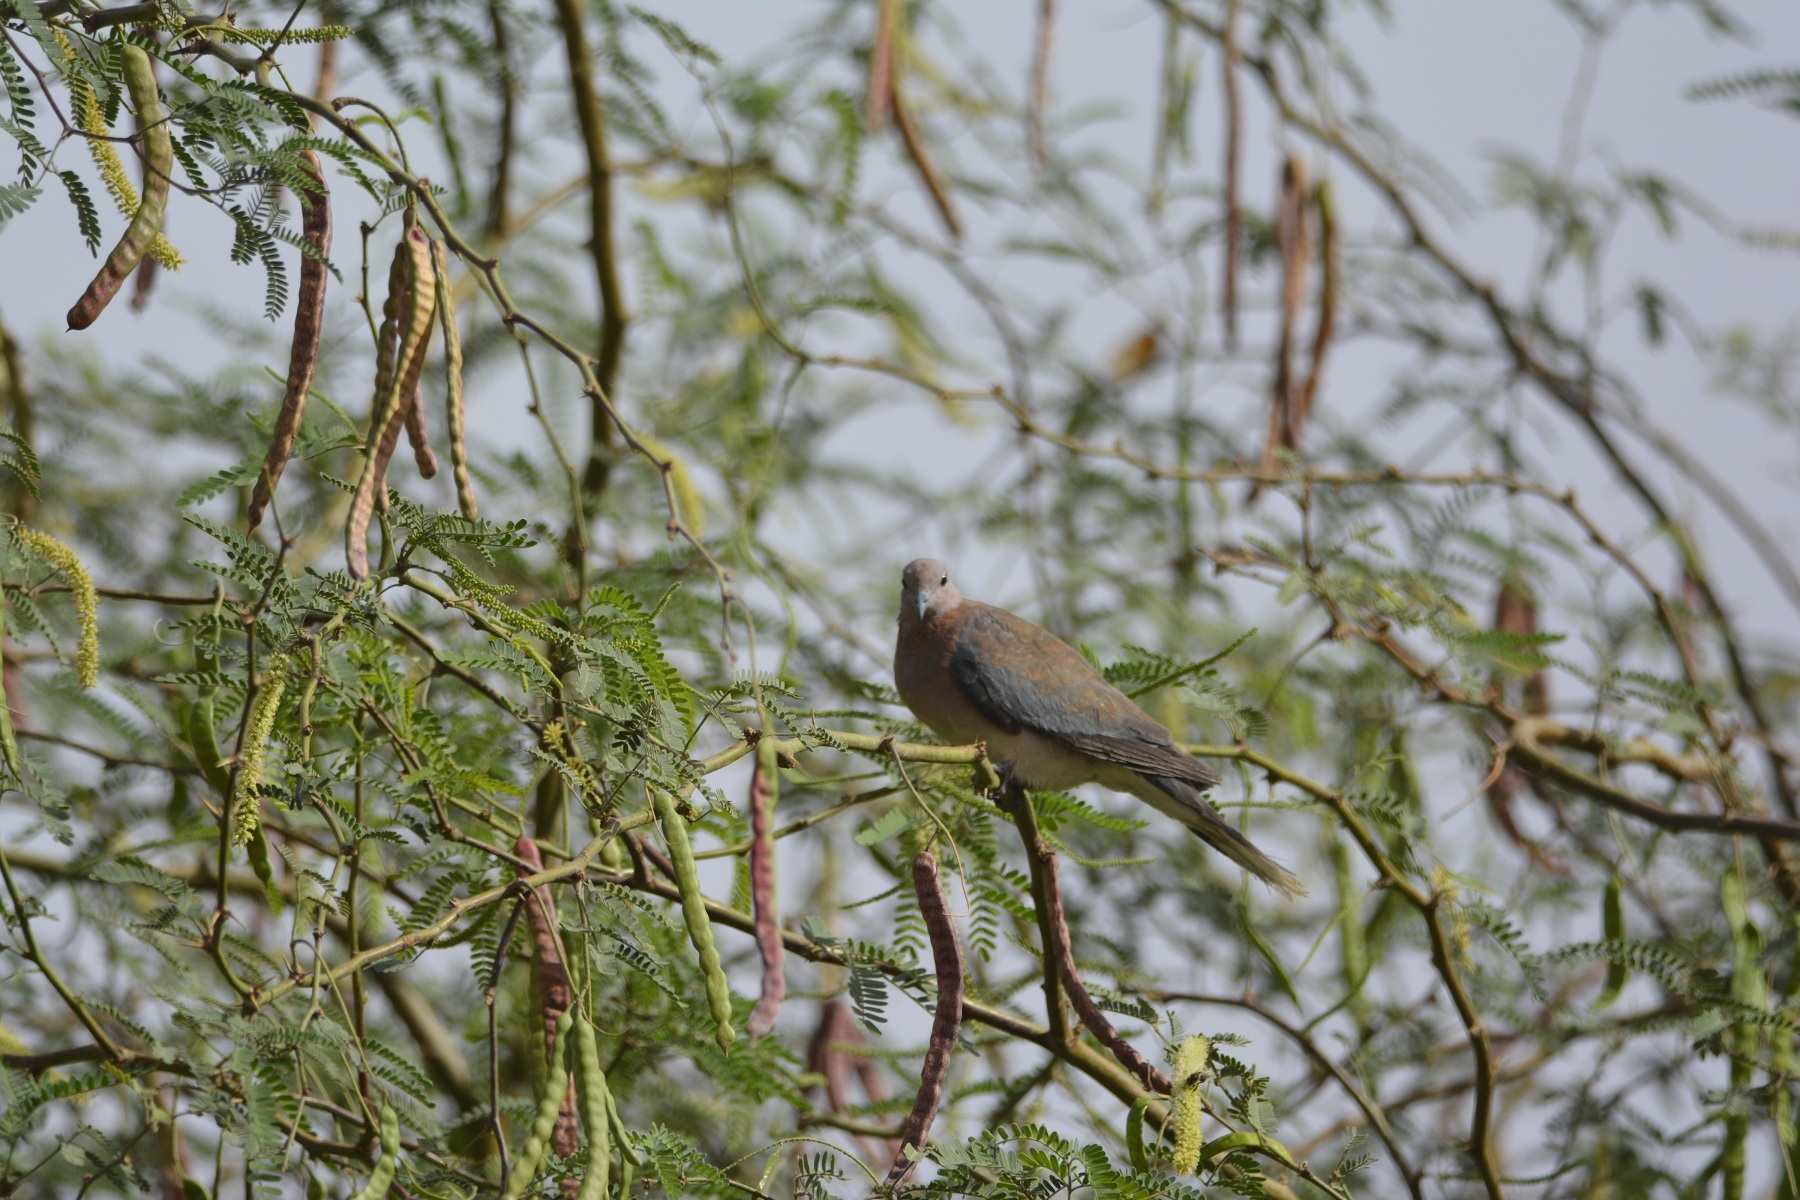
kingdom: Animalia
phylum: Chordata
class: Aves
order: Columbiformes
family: Columbidae
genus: Spilopelia
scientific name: Spilopelia senegalensis
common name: Laughing dove
